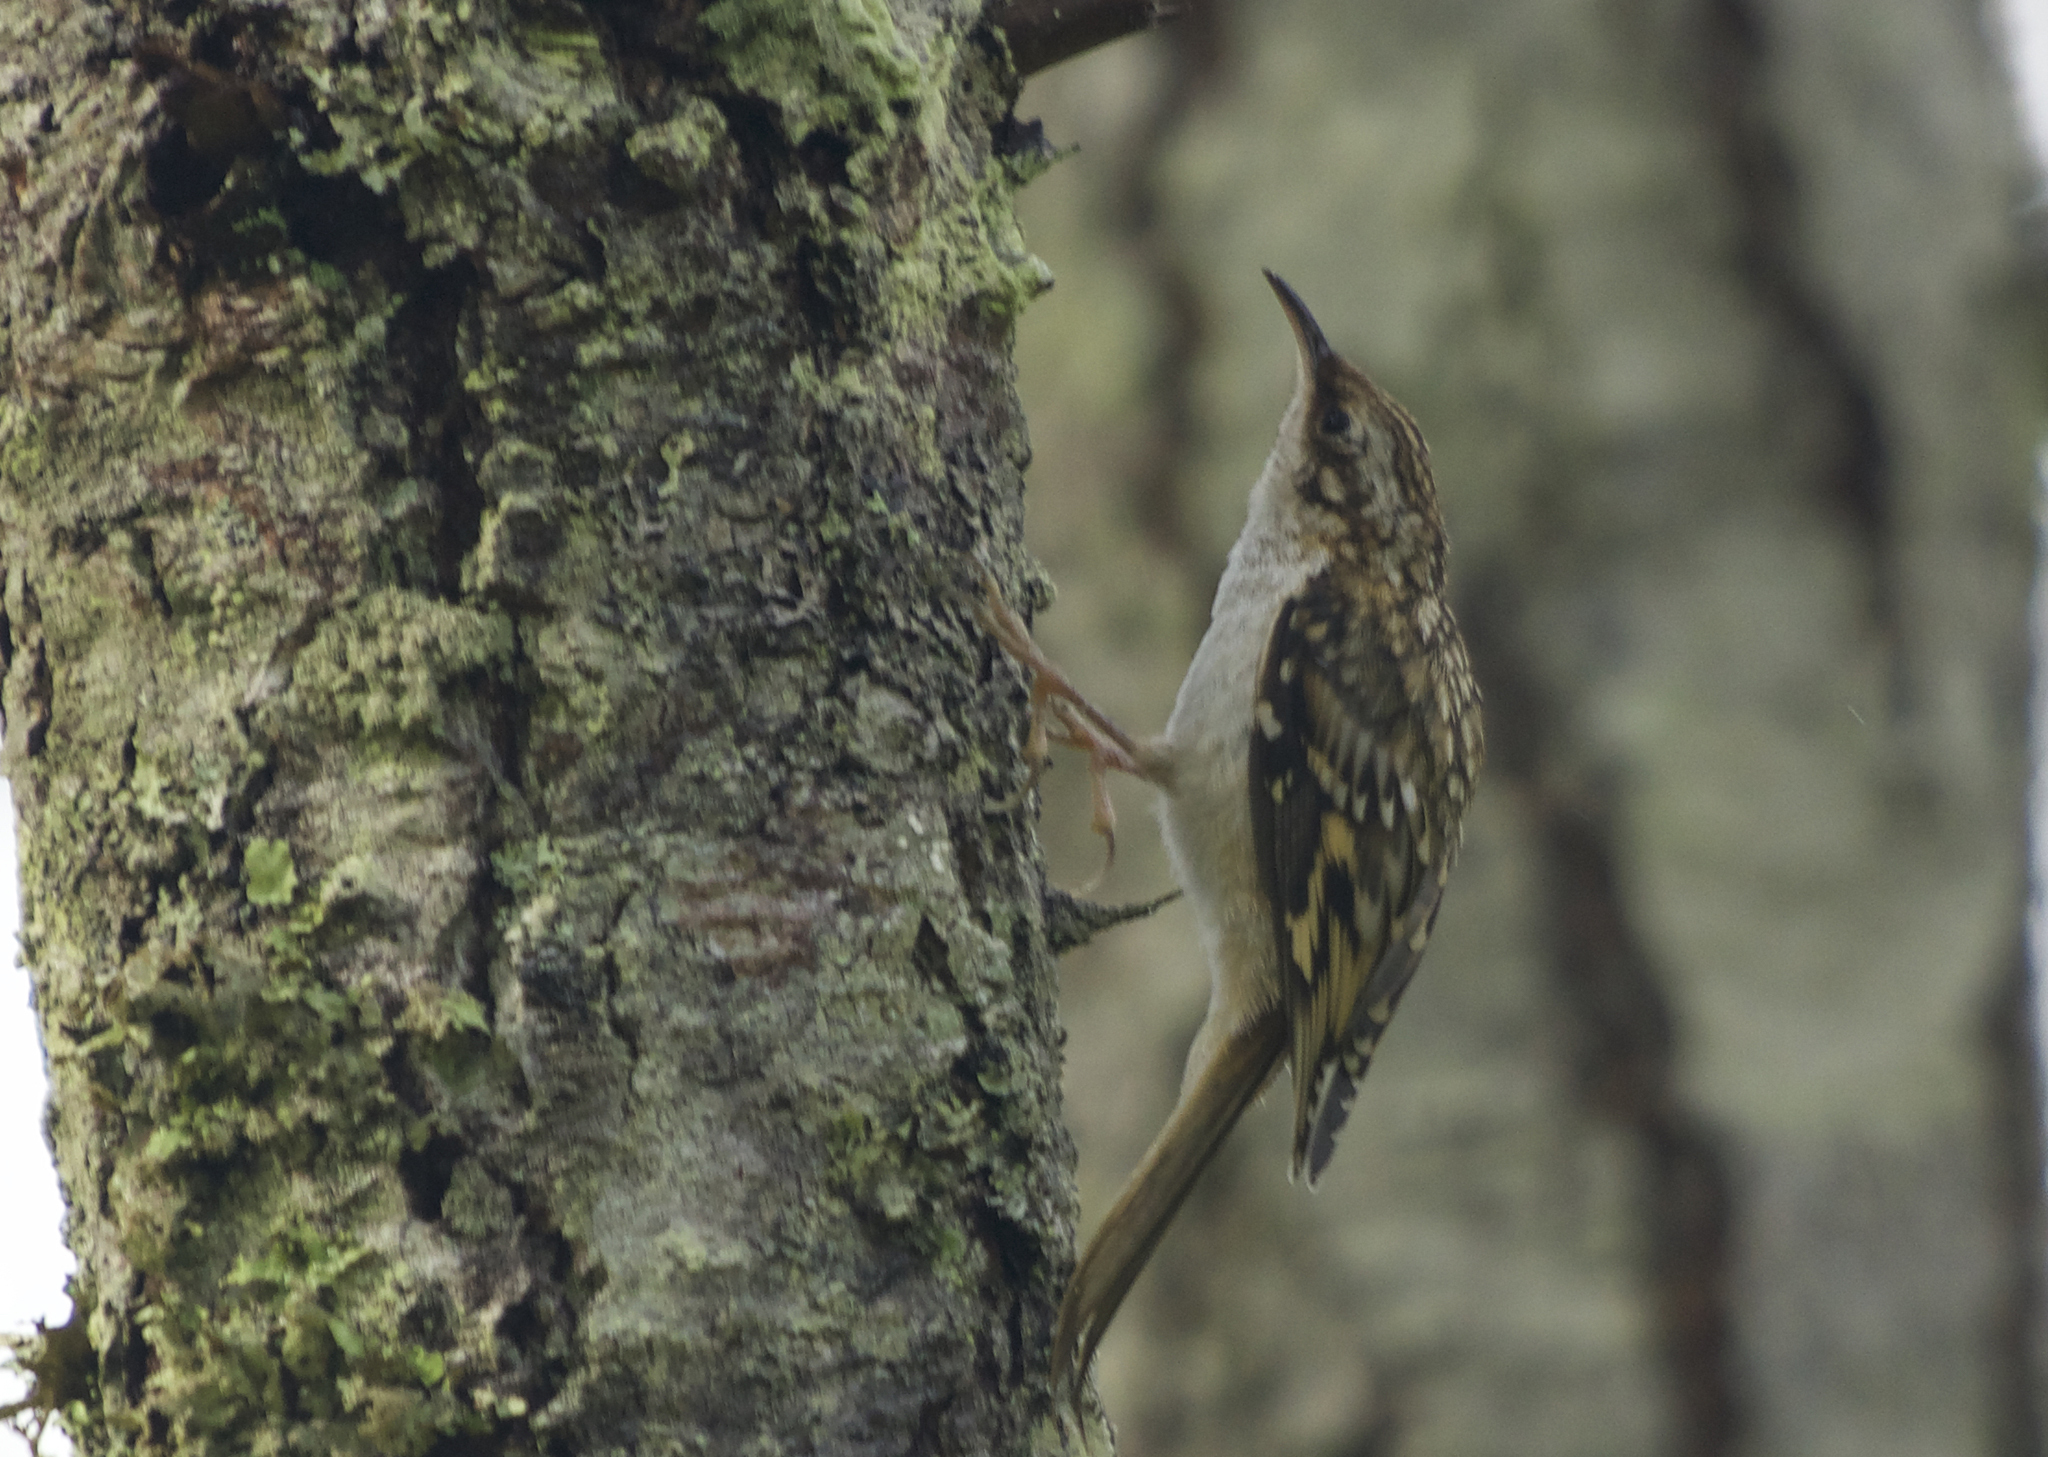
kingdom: Animalia
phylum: Chordata
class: Aves
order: Passeriformes
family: Certhiidae
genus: Certhia
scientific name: Certhia americana
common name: Brown creeper
